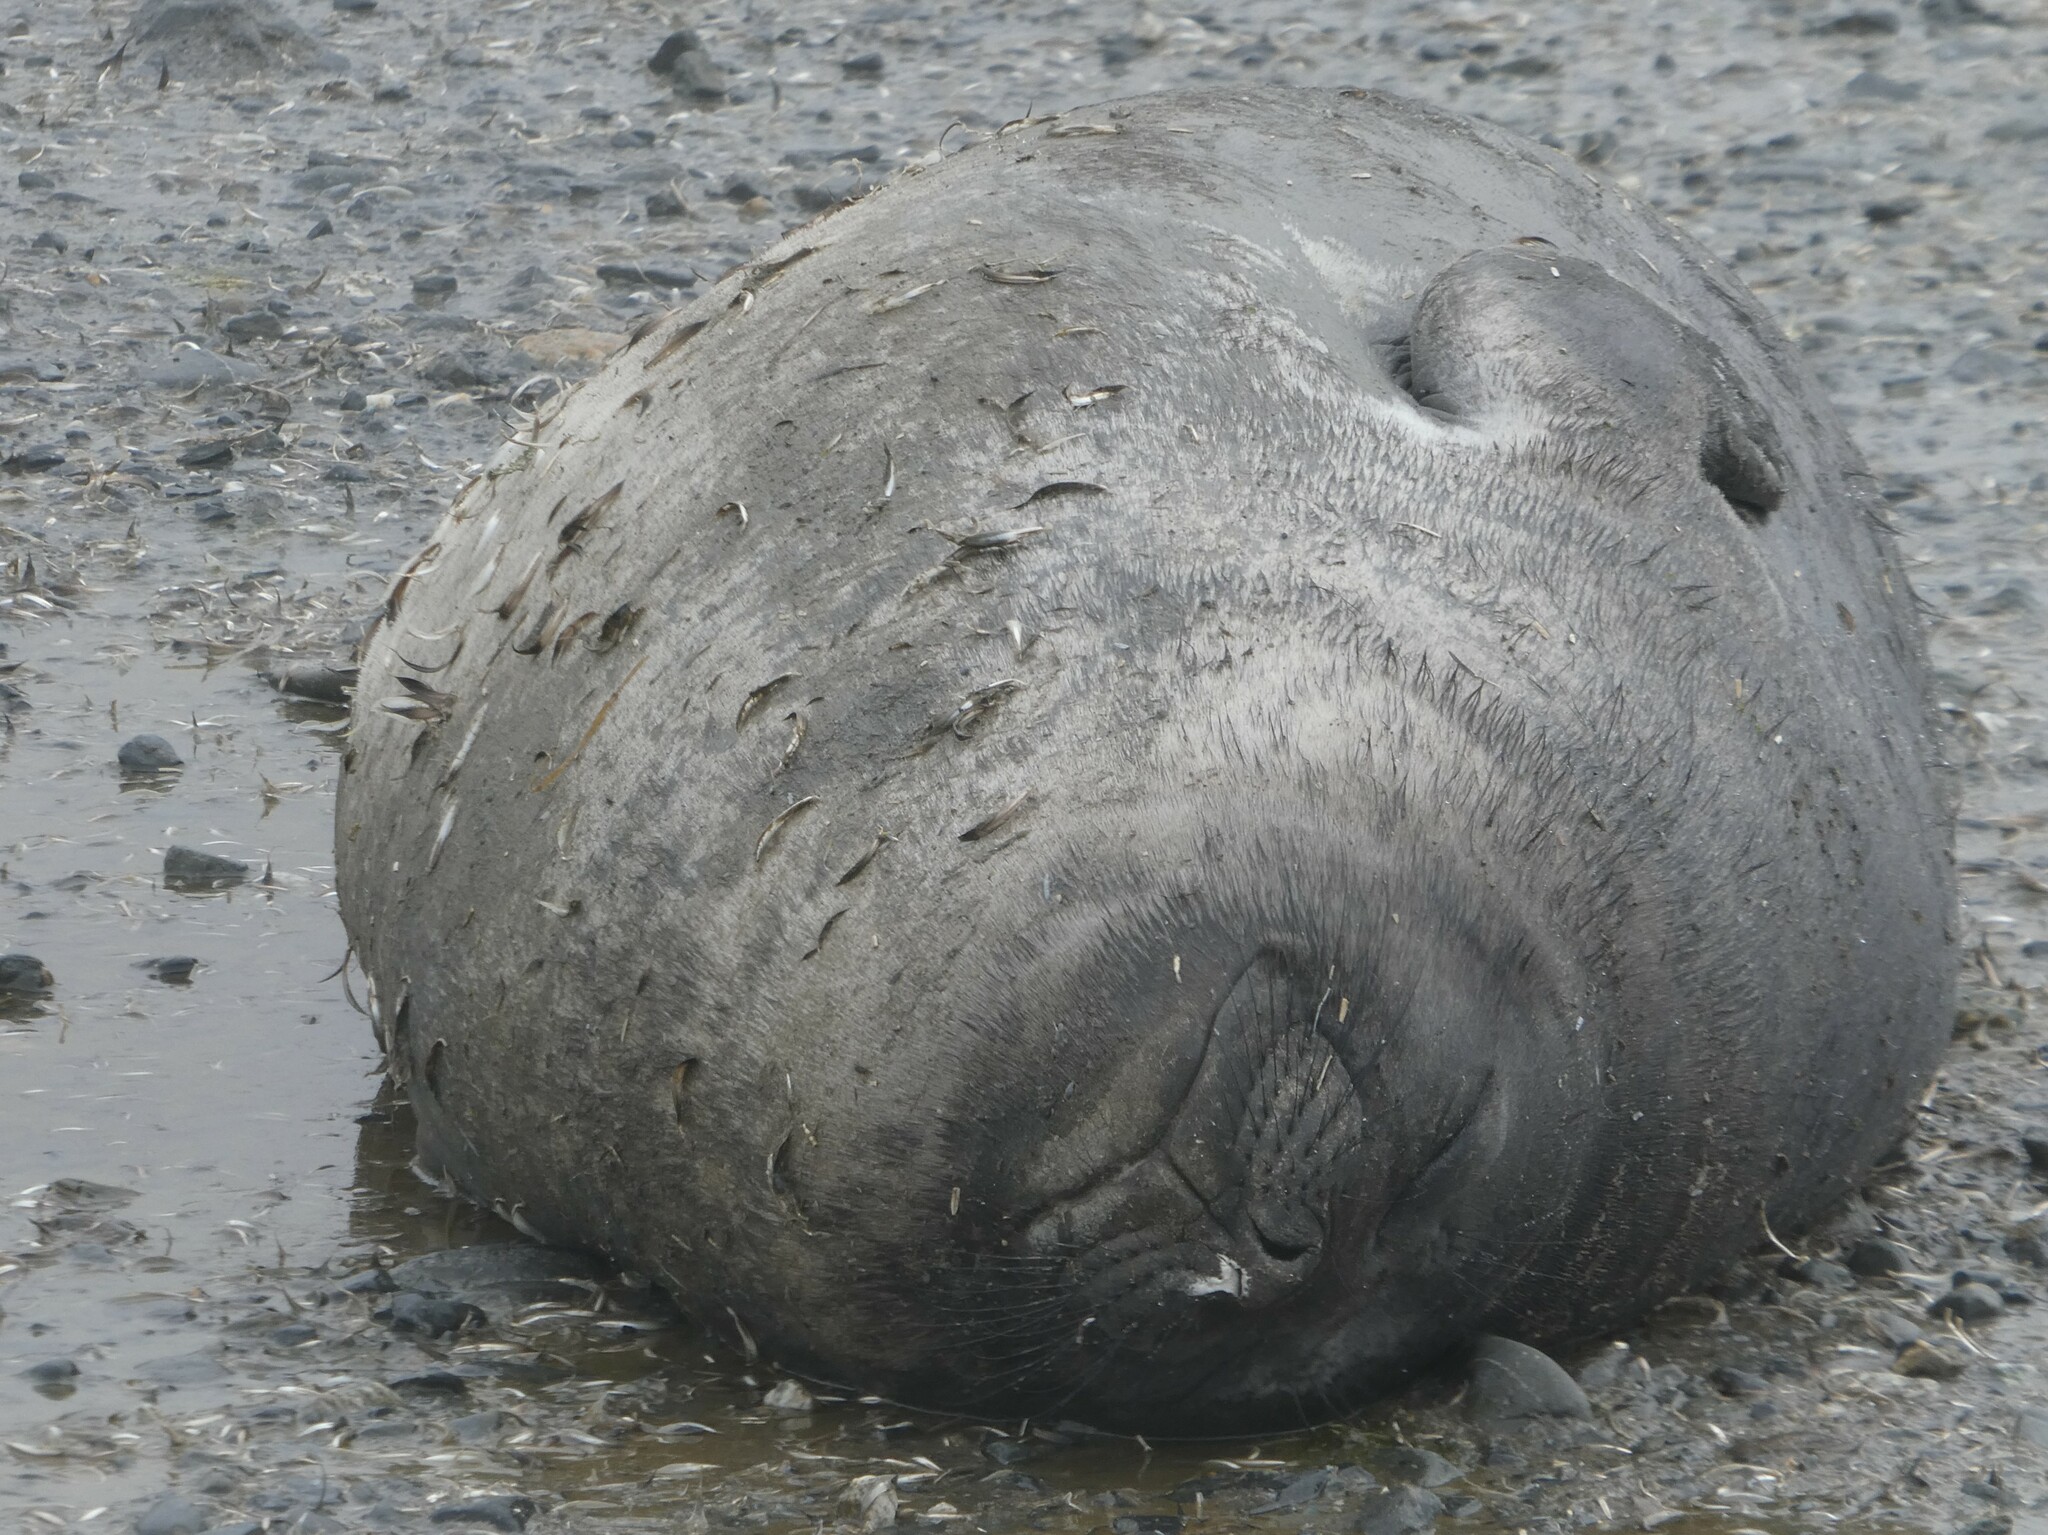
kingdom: Animalia
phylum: Chordata
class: Mammalia
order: Carnivora
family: Phocidae
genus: Mirounga
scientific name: Mirounga leonina
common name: Southern elephant seal
